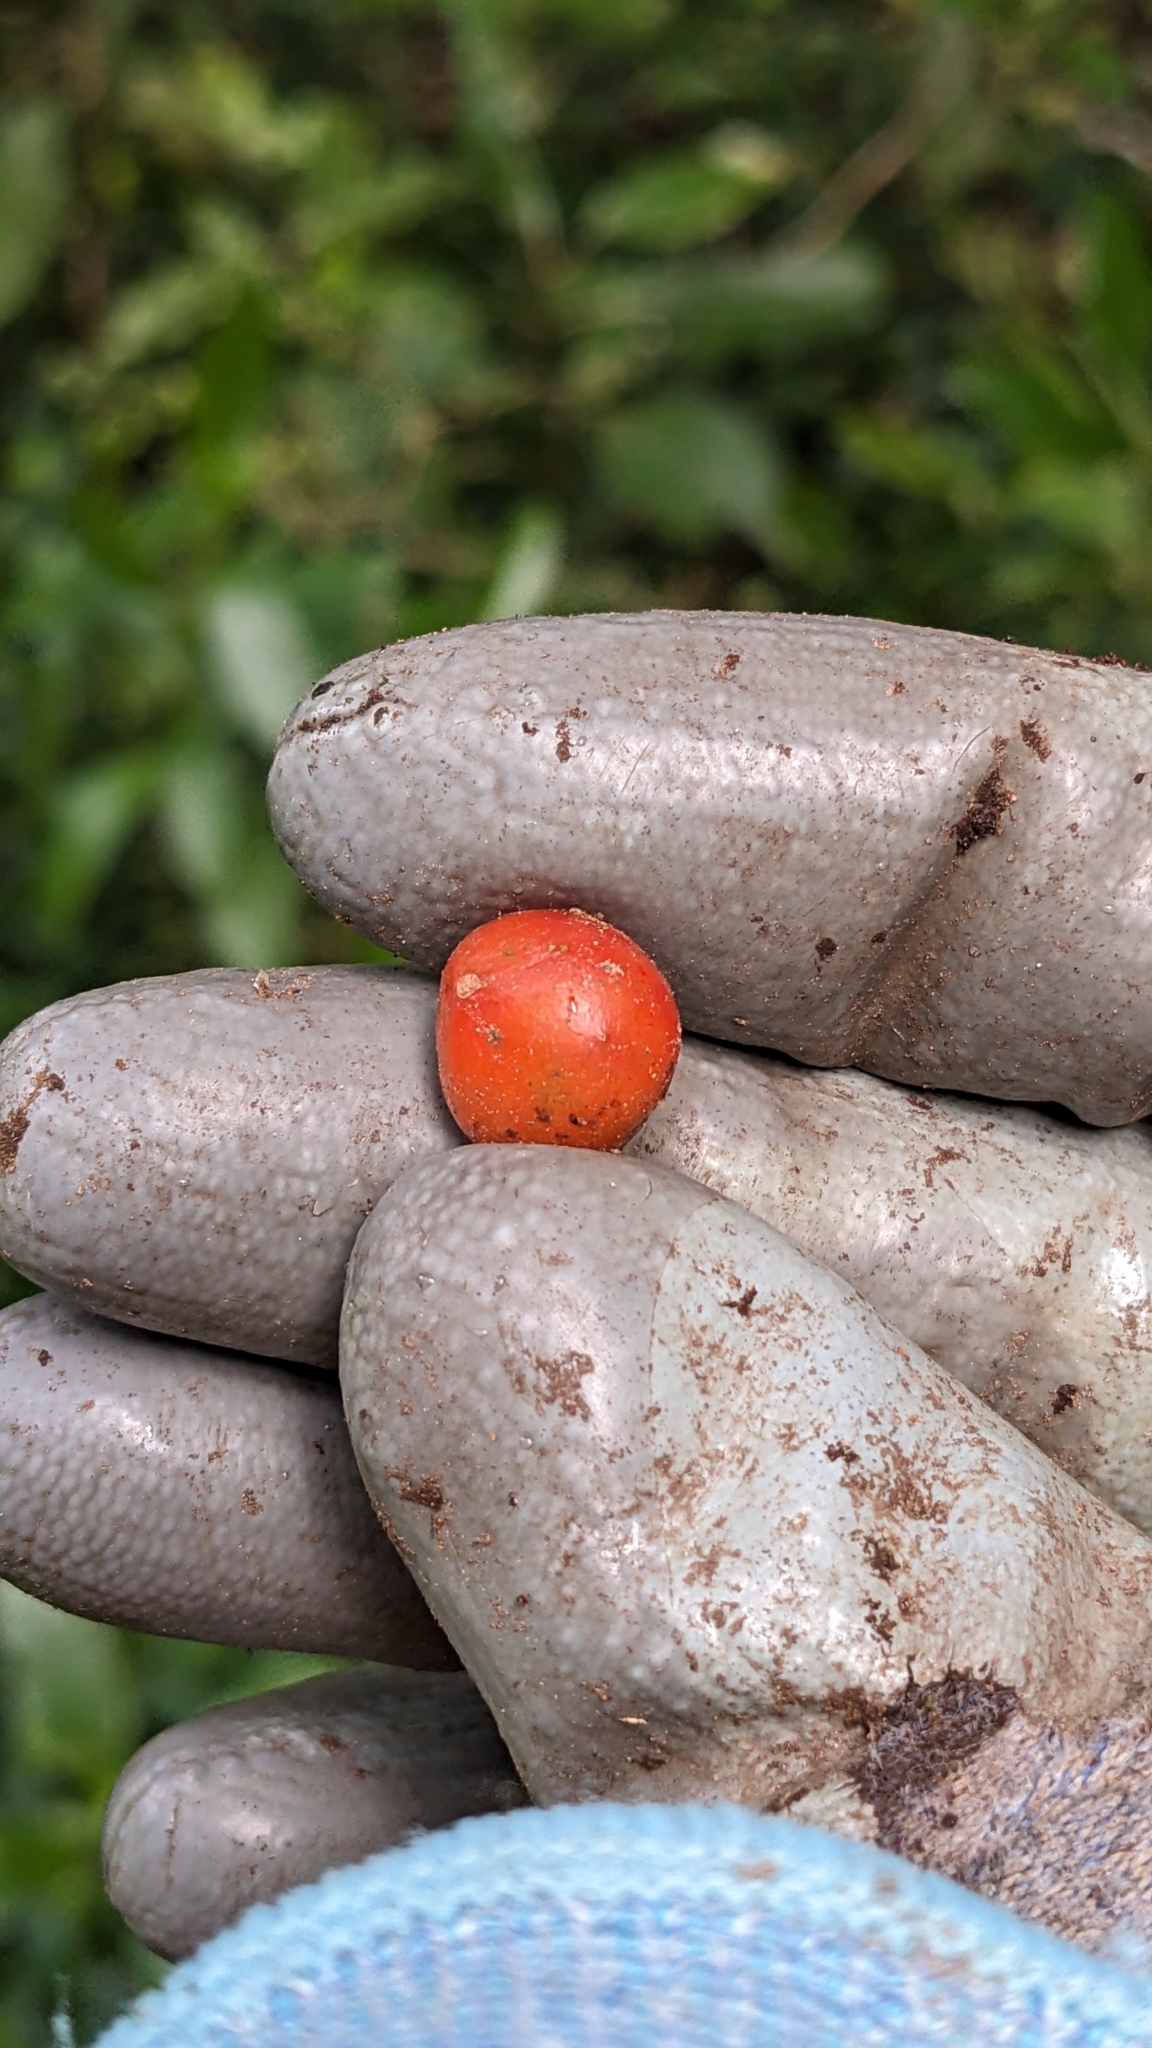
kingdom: Plantae
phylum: Tracheophyta
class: Liliopsida
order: Liliales
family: Ripogonaceae
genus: Ripogonum
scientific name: Ripogonum scandens
